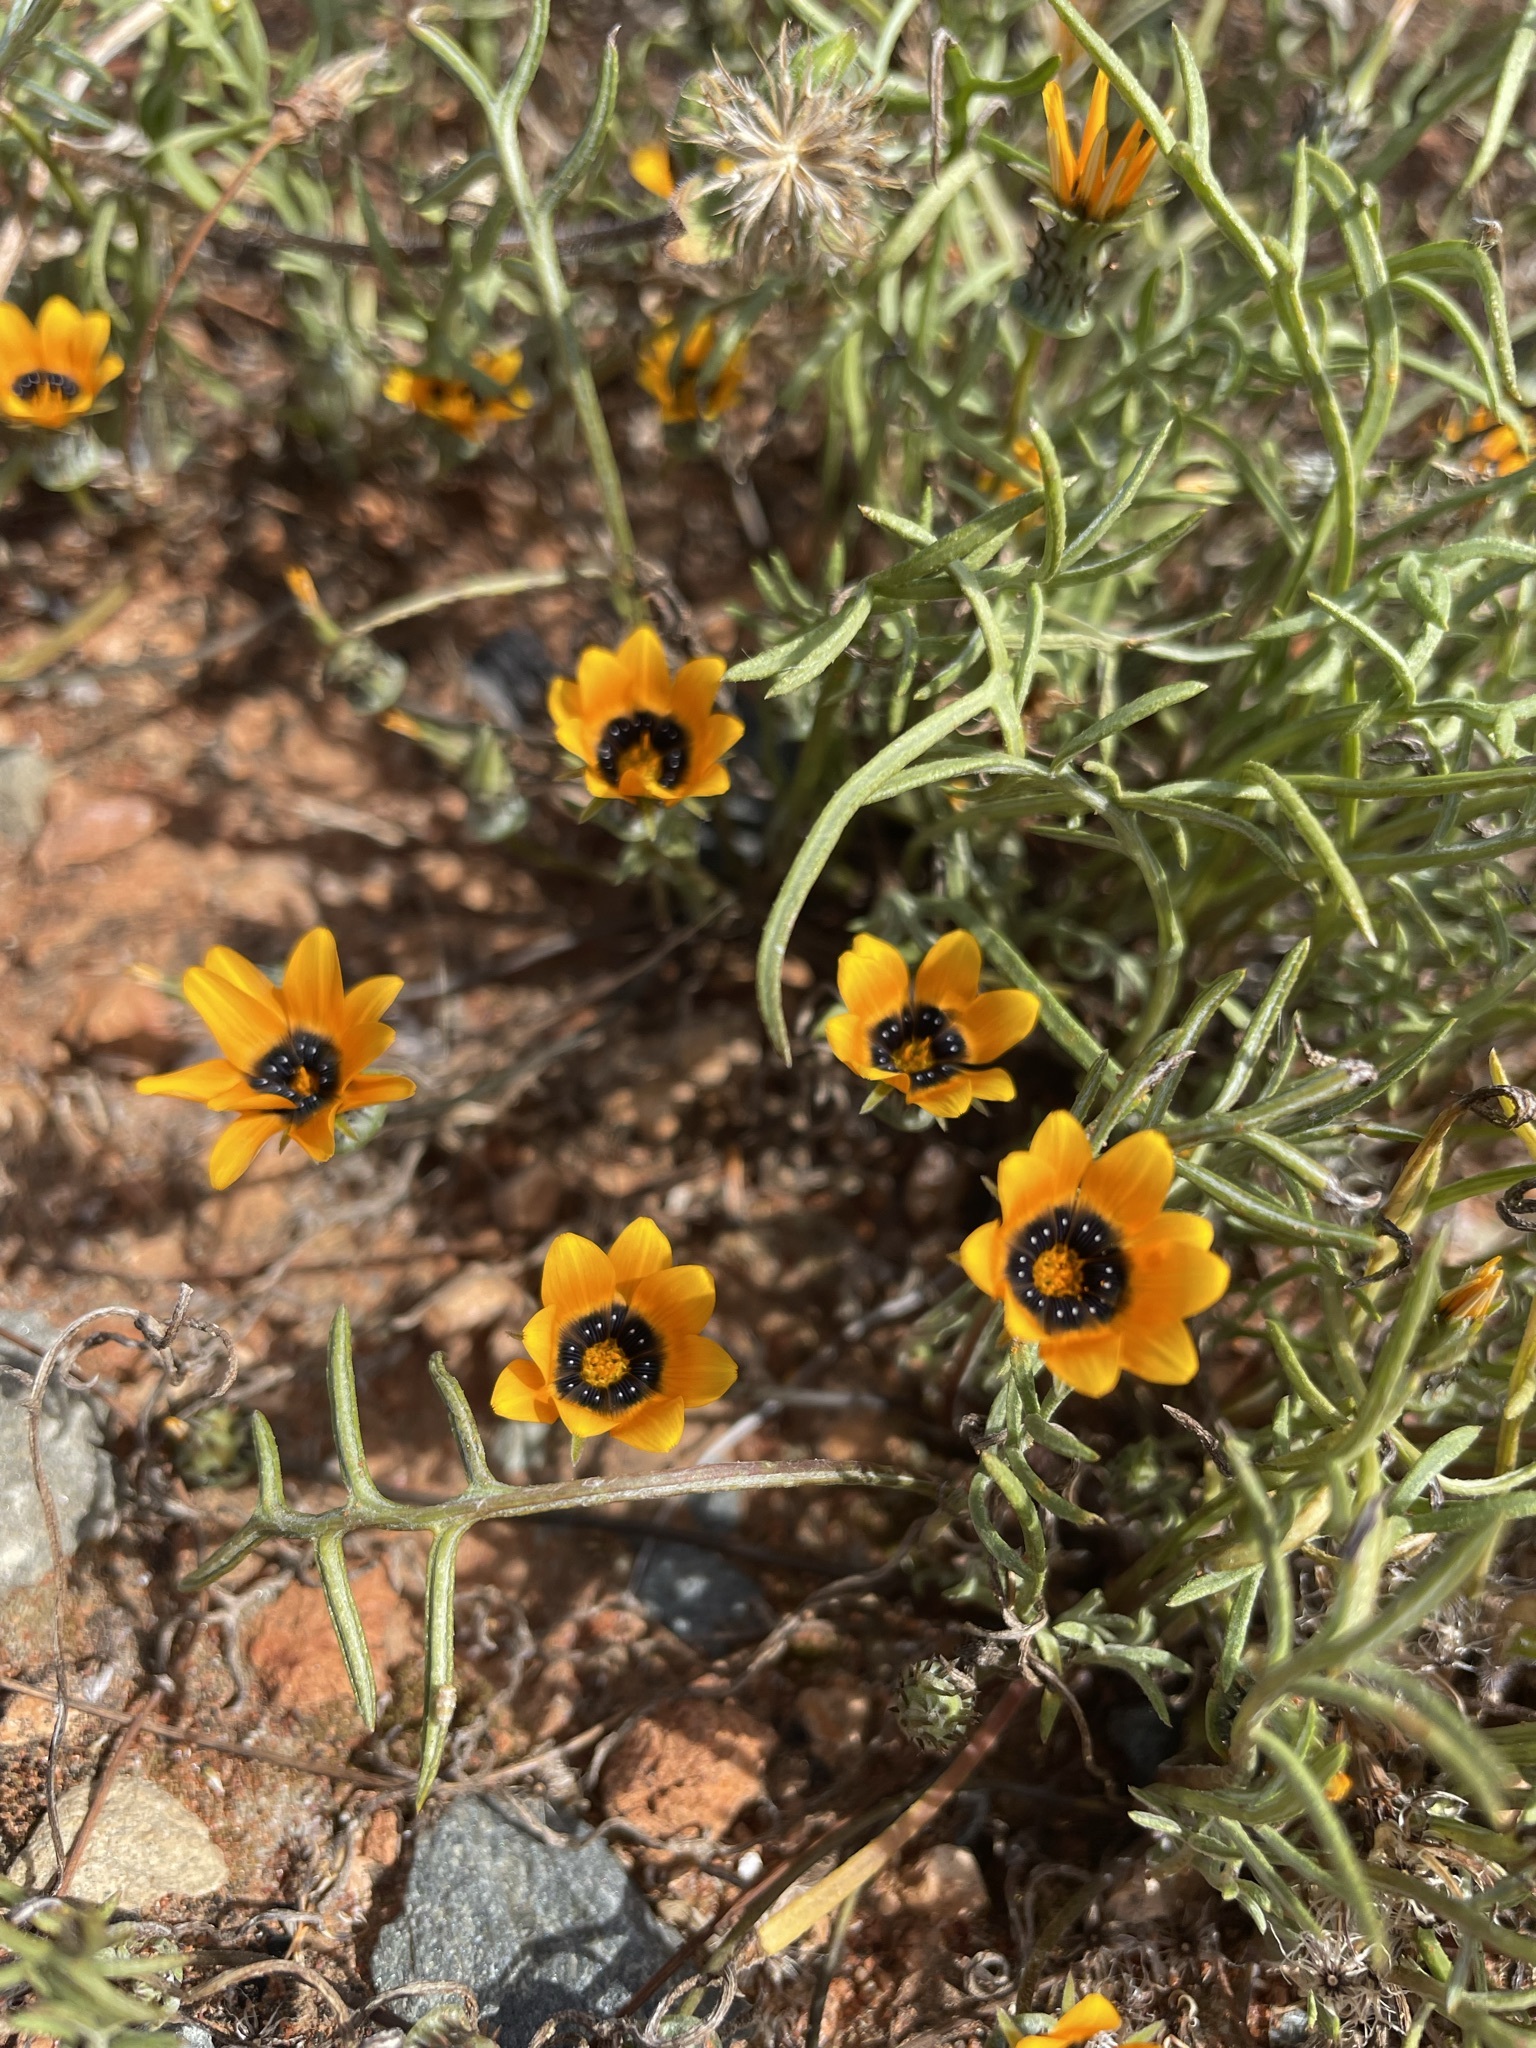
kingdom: Plantae
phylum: Tracheophyta
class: Magnoliopsida
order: Asterales
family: Asteraceae
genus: Gazania
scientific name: Gazania tenuifolia
